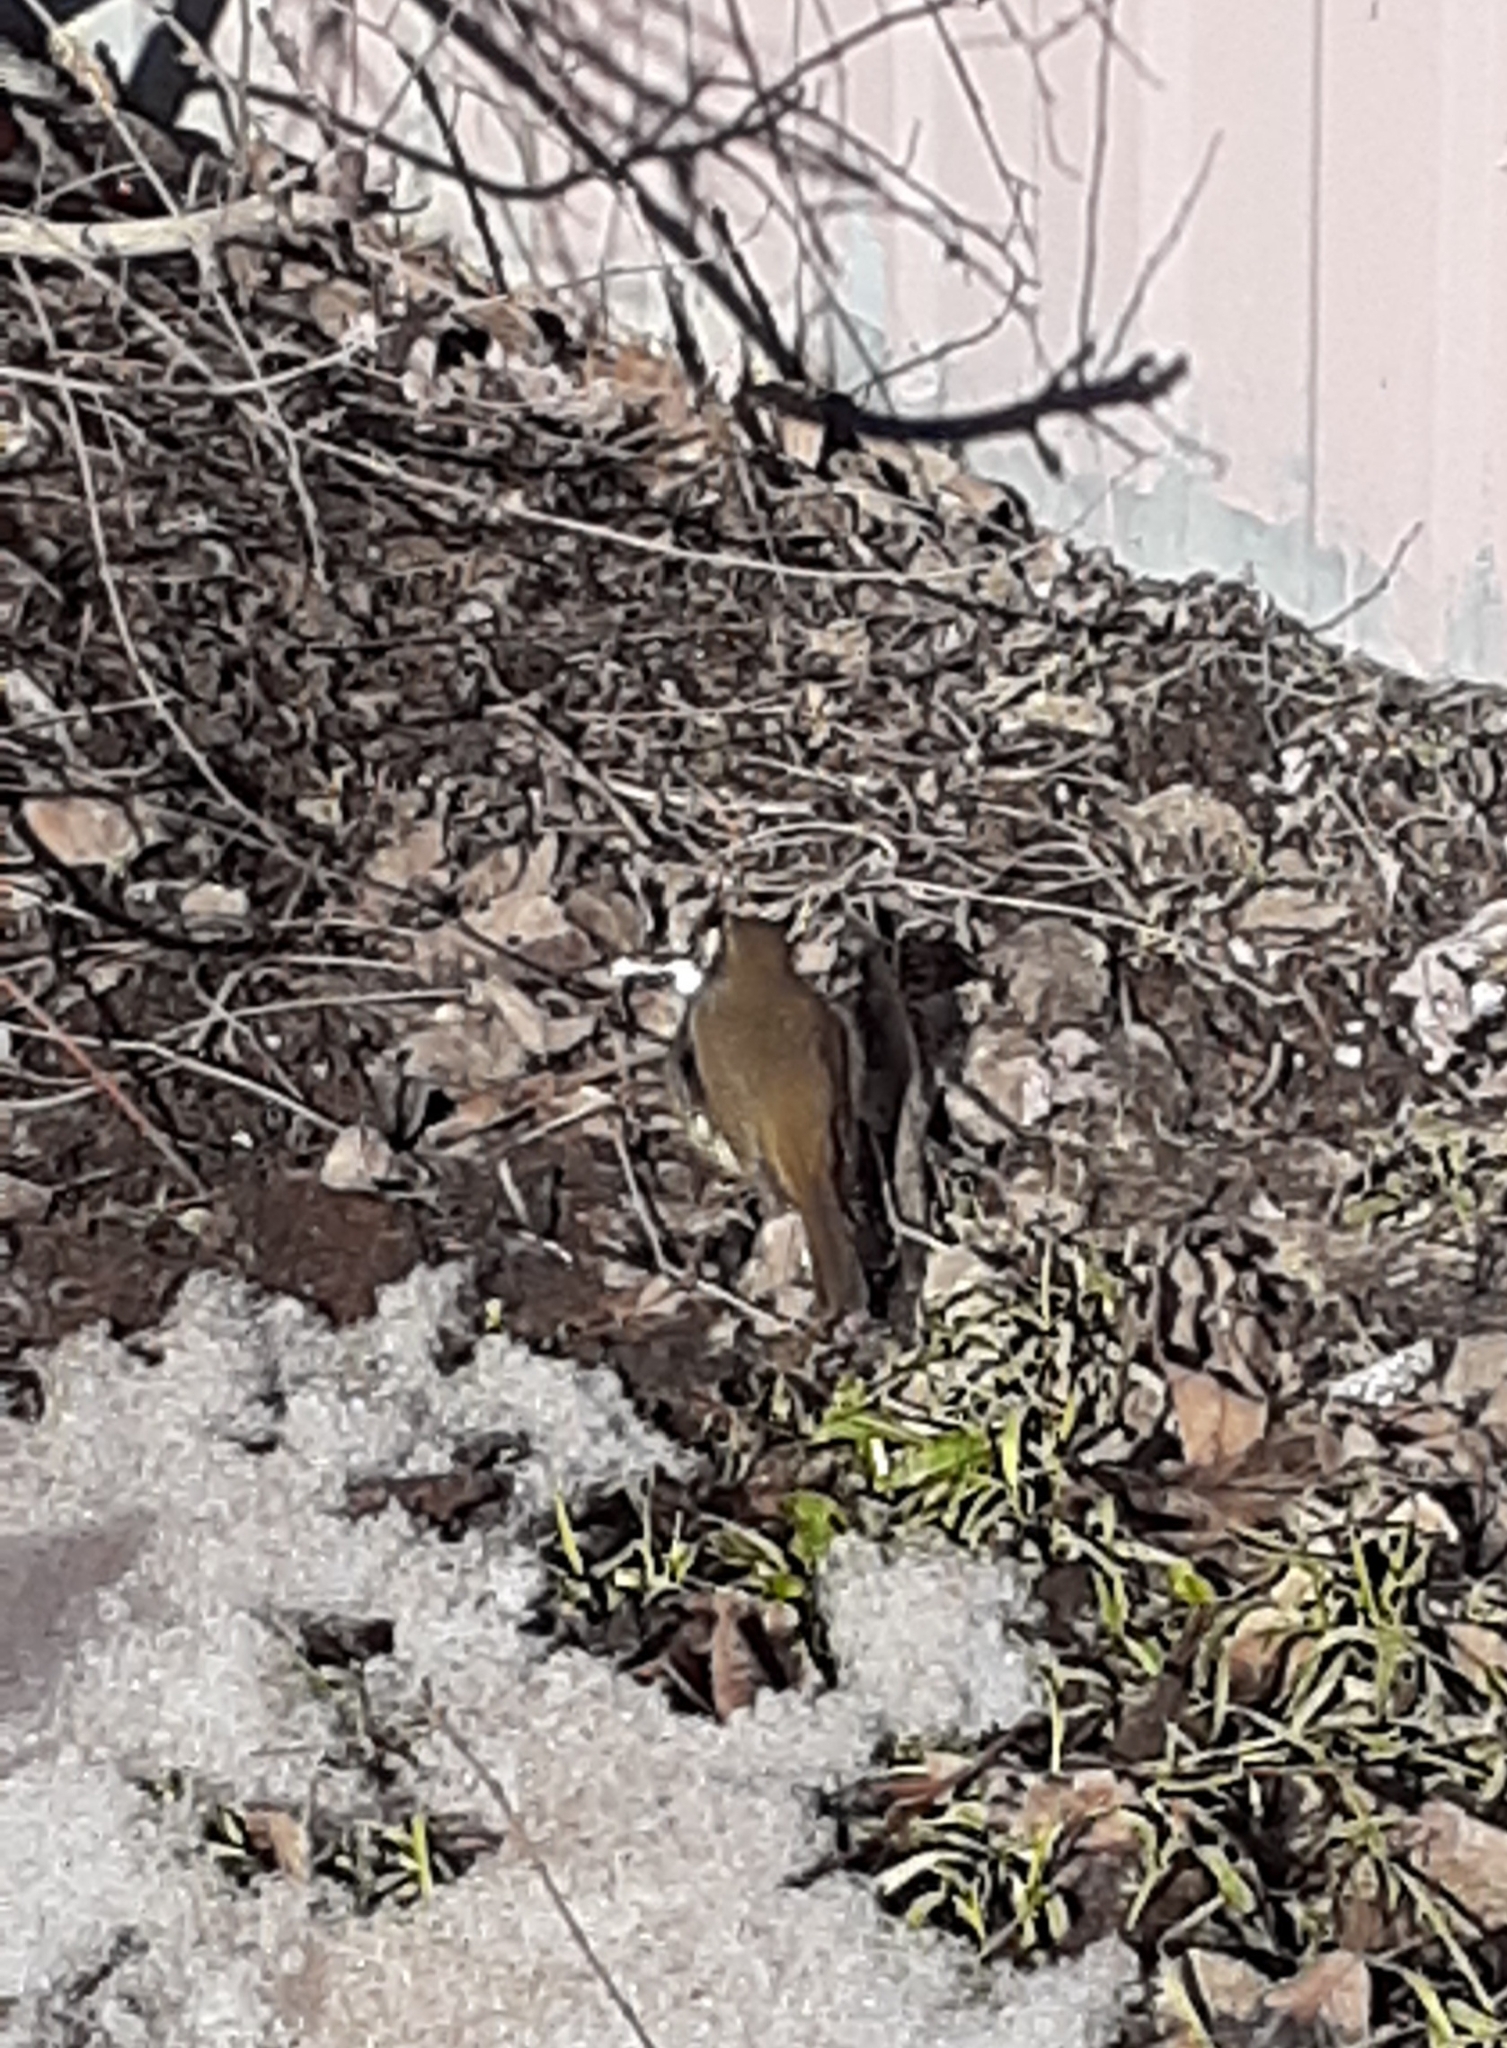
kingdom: Animalia
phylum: Chordata
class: Aves
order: Passeriformes
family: Muscicapidae
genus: Erithacus
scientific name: Erithacus rubecula
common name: European robin
